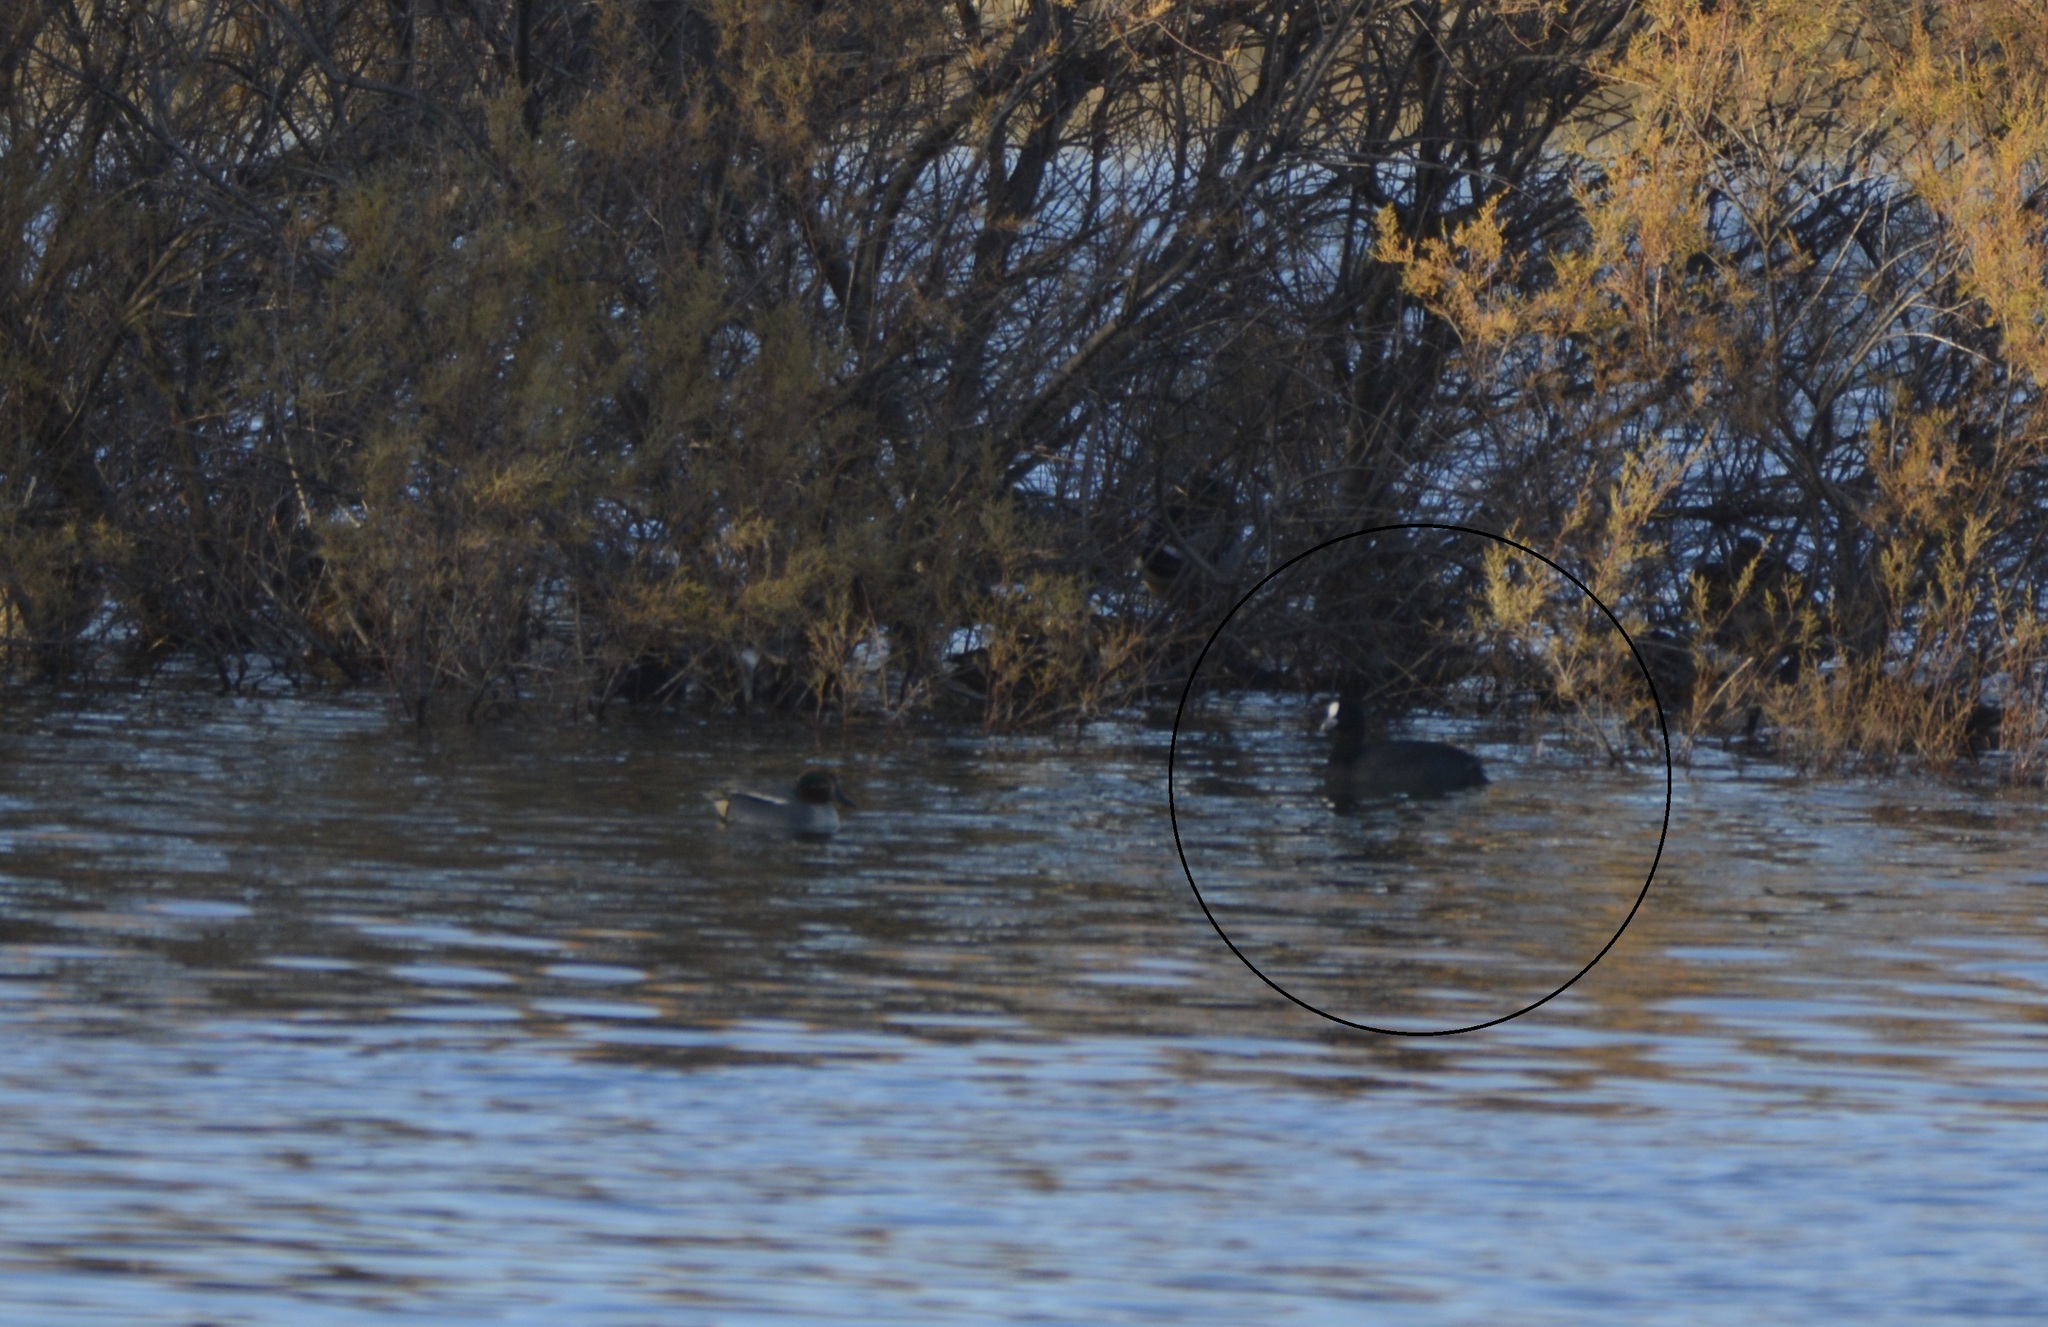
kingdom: Animalia
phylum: Chordata
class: Aves
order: Gruiformes
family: Rallidae
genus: Fulica
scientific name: Fulica atra
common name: Eurasian coot
